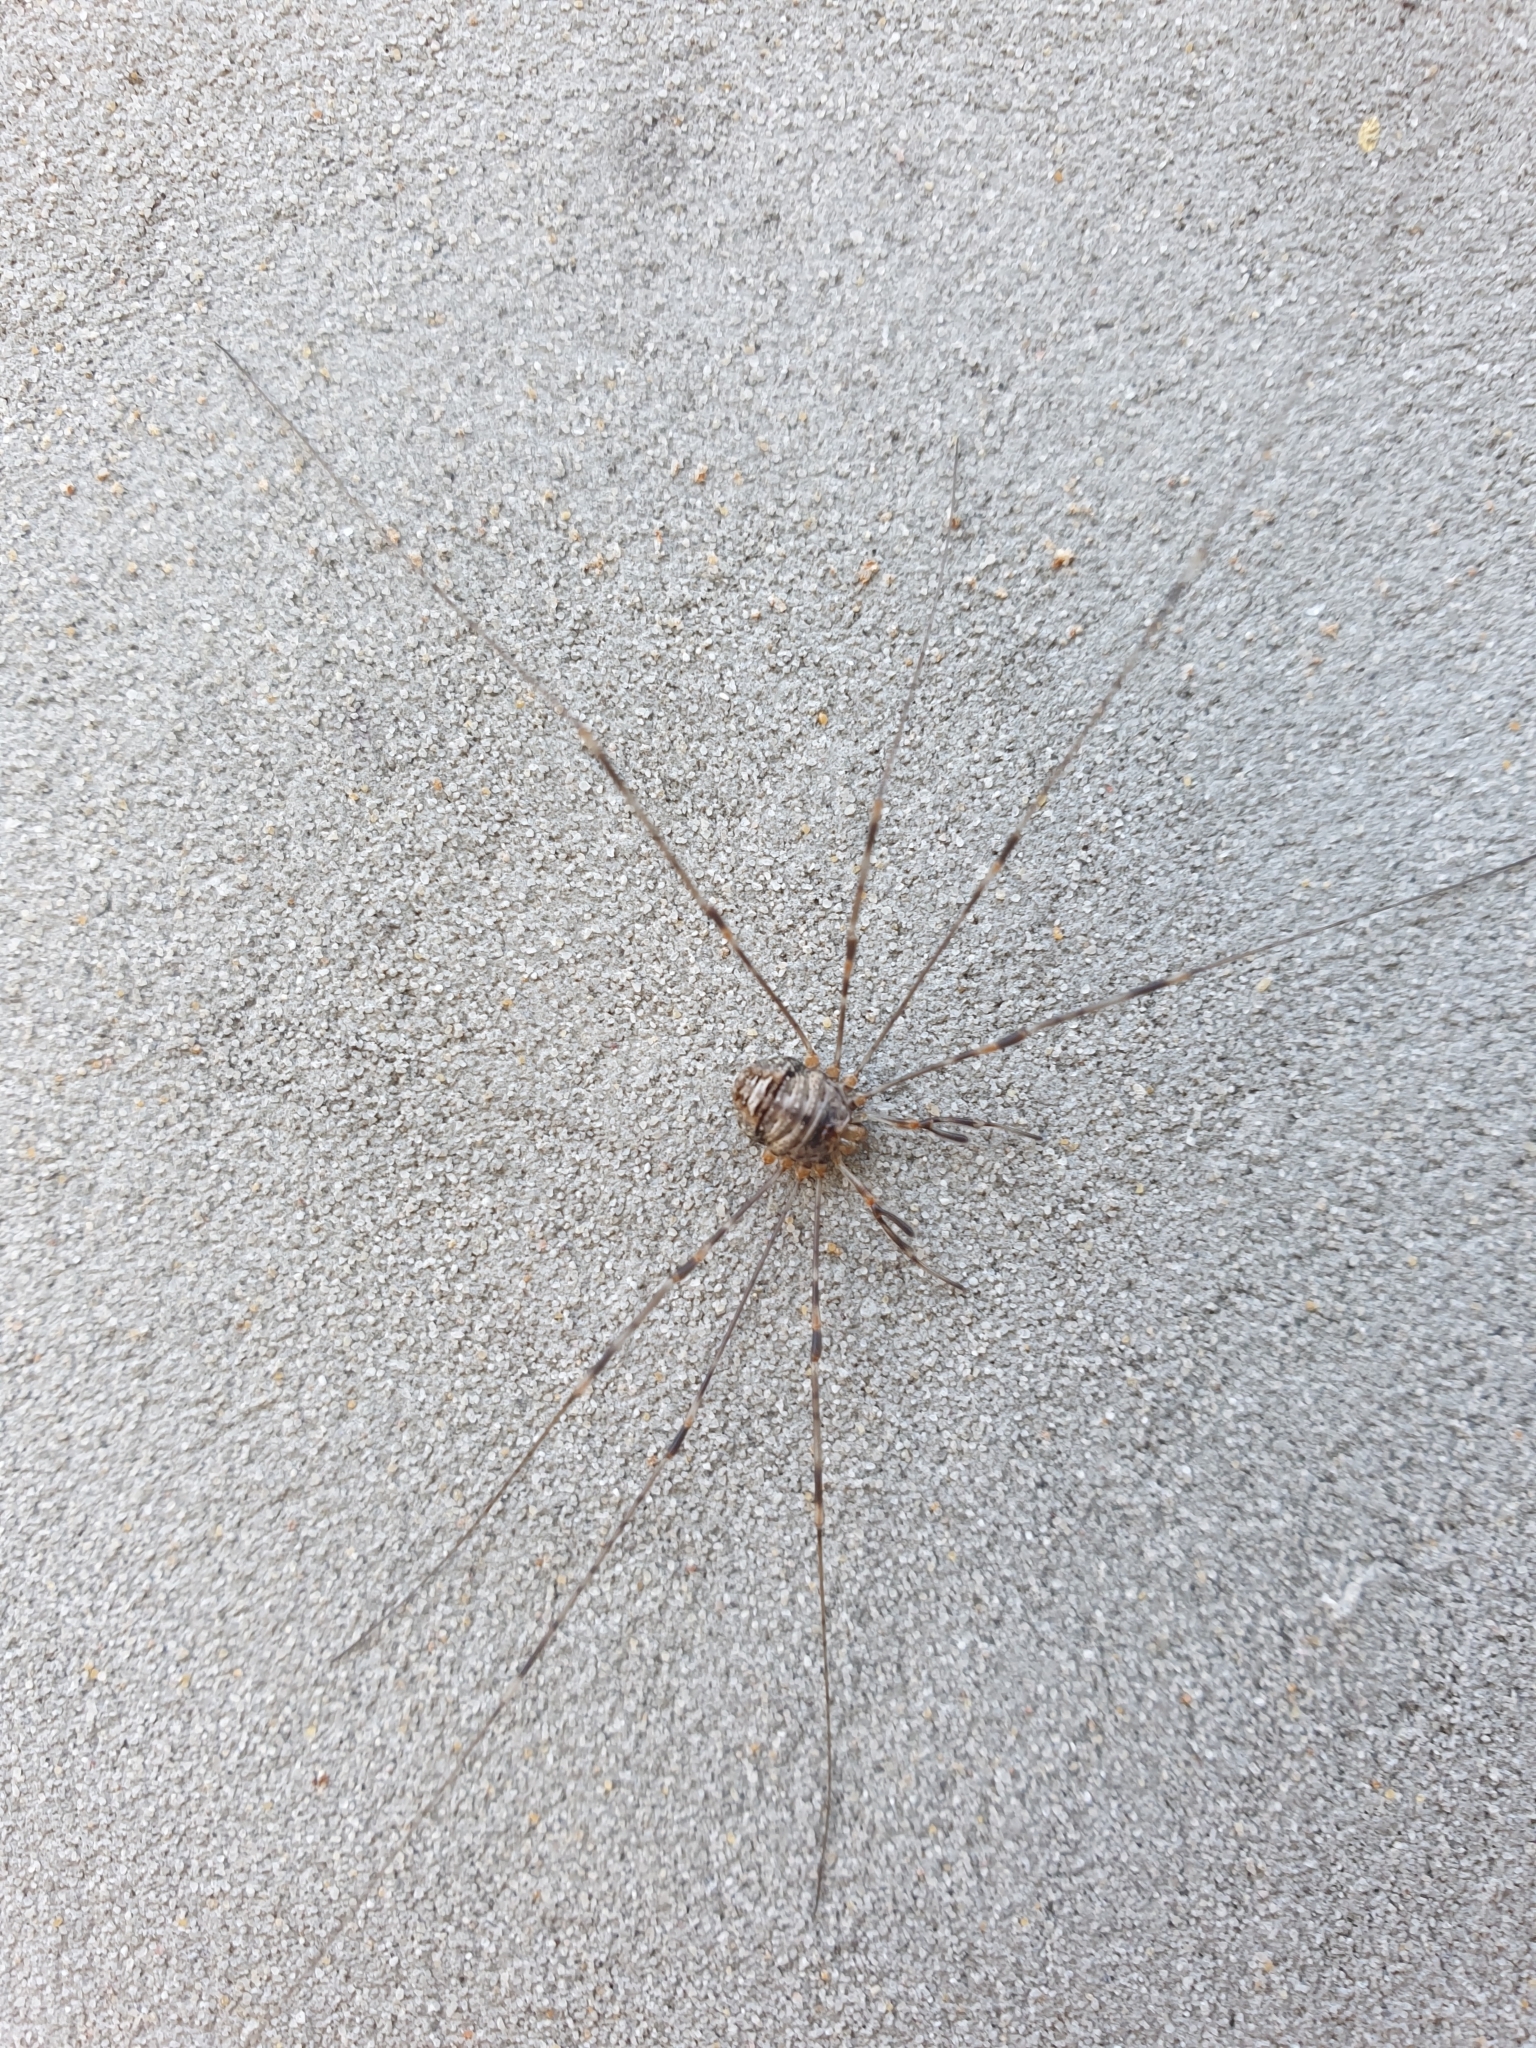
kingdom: Animalia
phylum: Arthropoda
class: Arachnida
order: Opiliones
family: Phalangiidae
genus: Dicranopalpus
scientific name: Dicranopalpus ramosus
